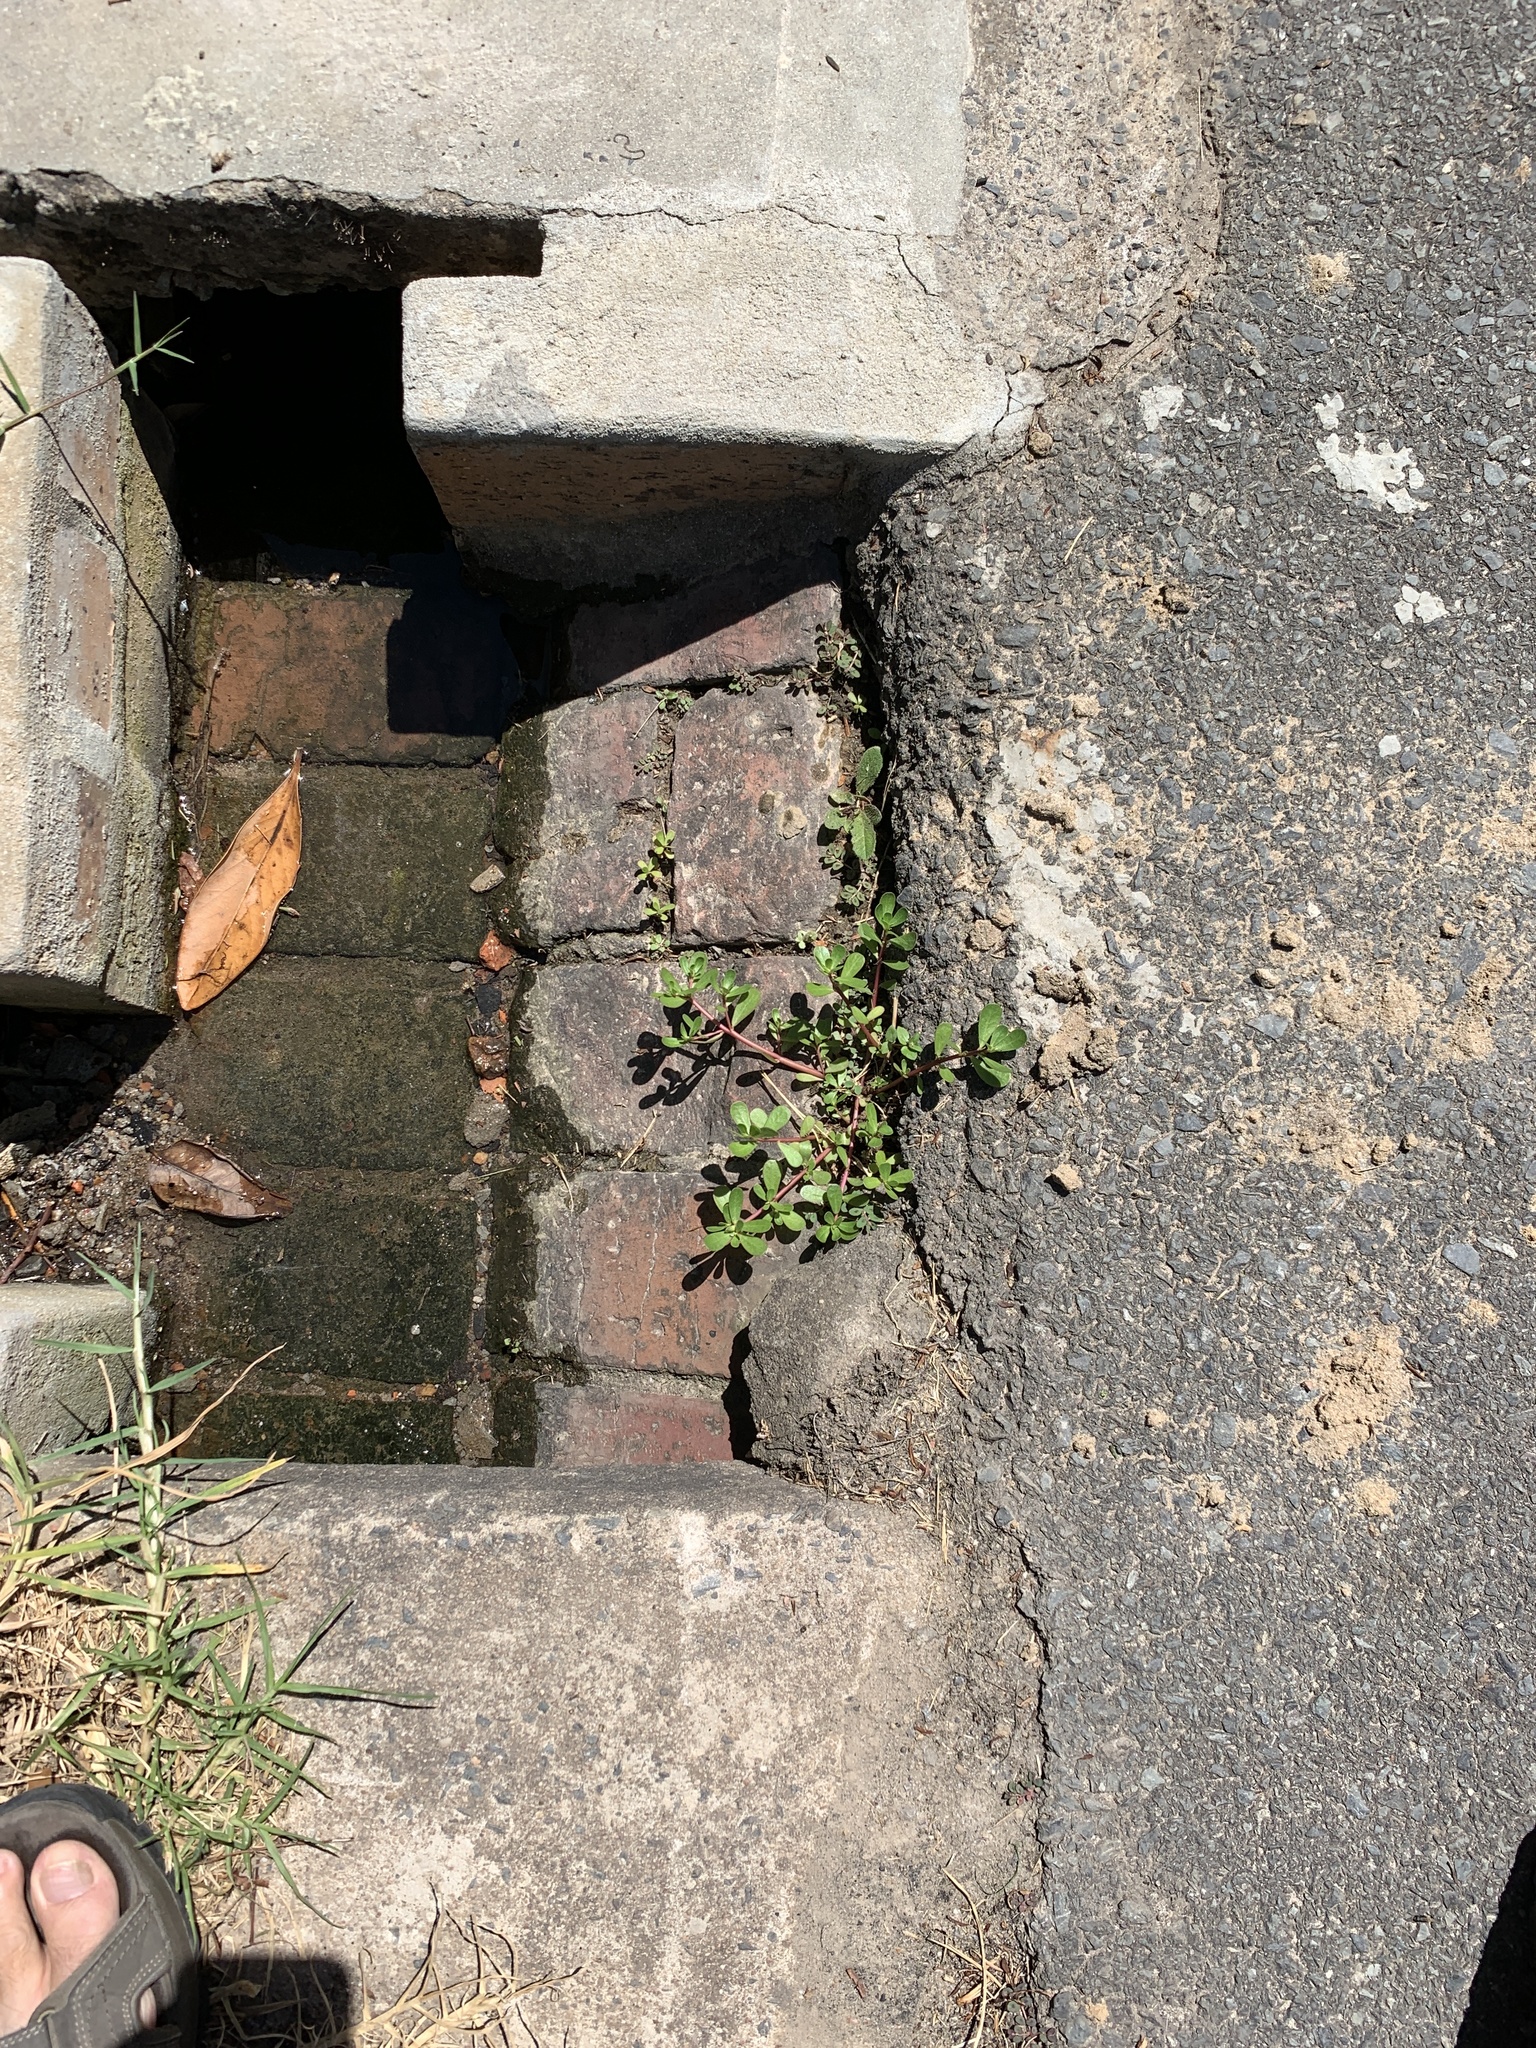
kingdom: Plantae
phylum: Tracheophyta
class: Magnoliopsida
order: Caryophyllales
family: Portulacaceae
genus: Portulaca
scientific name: Portulaca oleracea
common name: Common purslane
